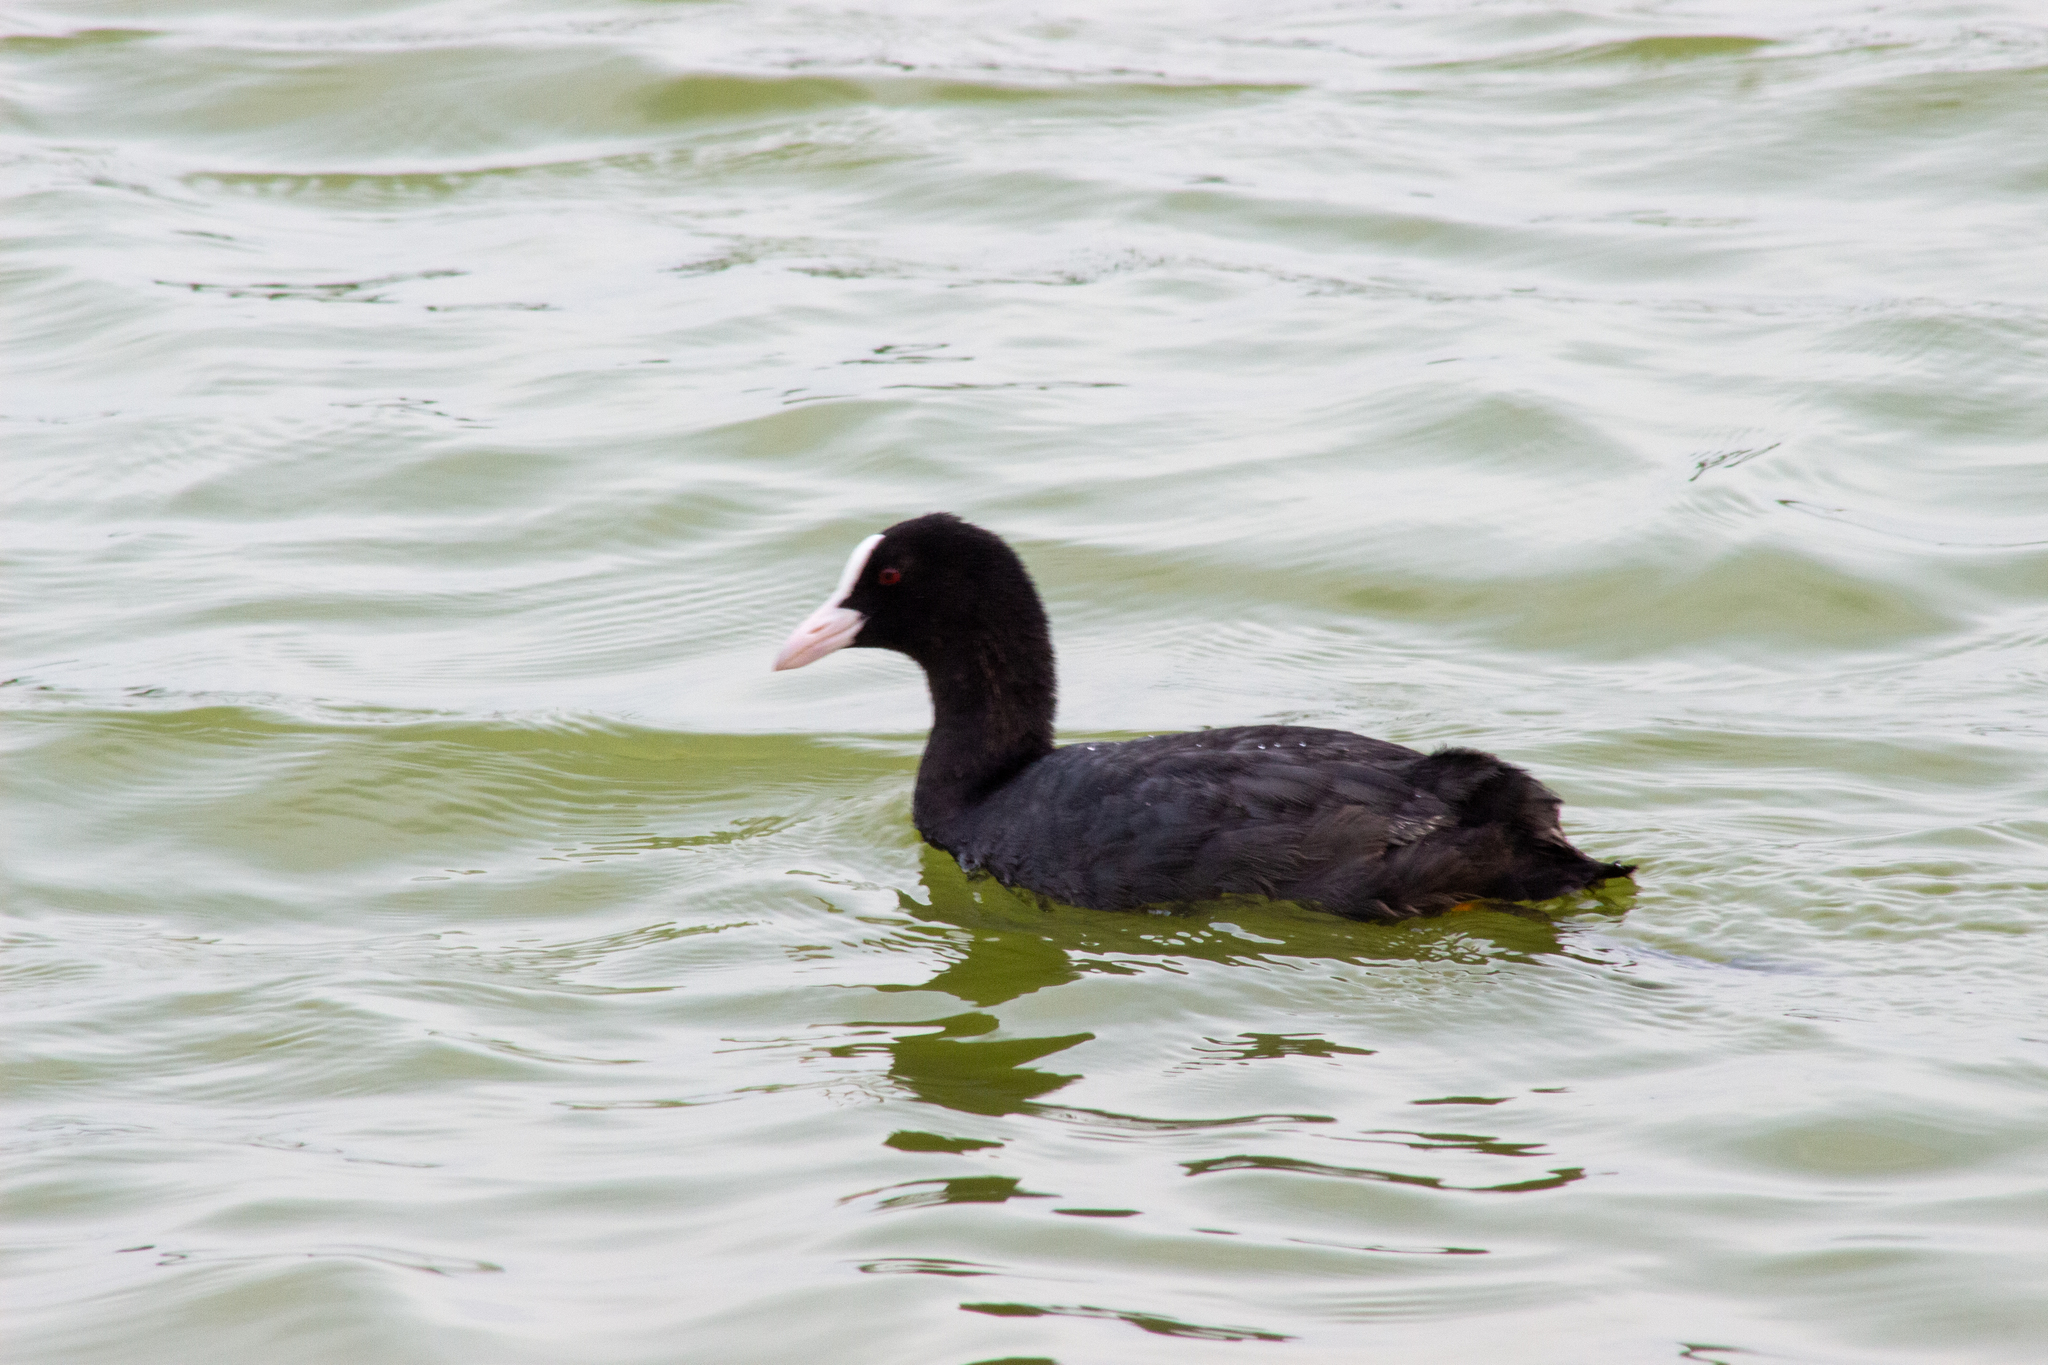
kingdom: Animalia
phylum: Chordata
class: Aves
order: Gruiformes
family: Rallidae
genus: Fulica
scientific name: Fulica atra
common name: Eurasian coot
